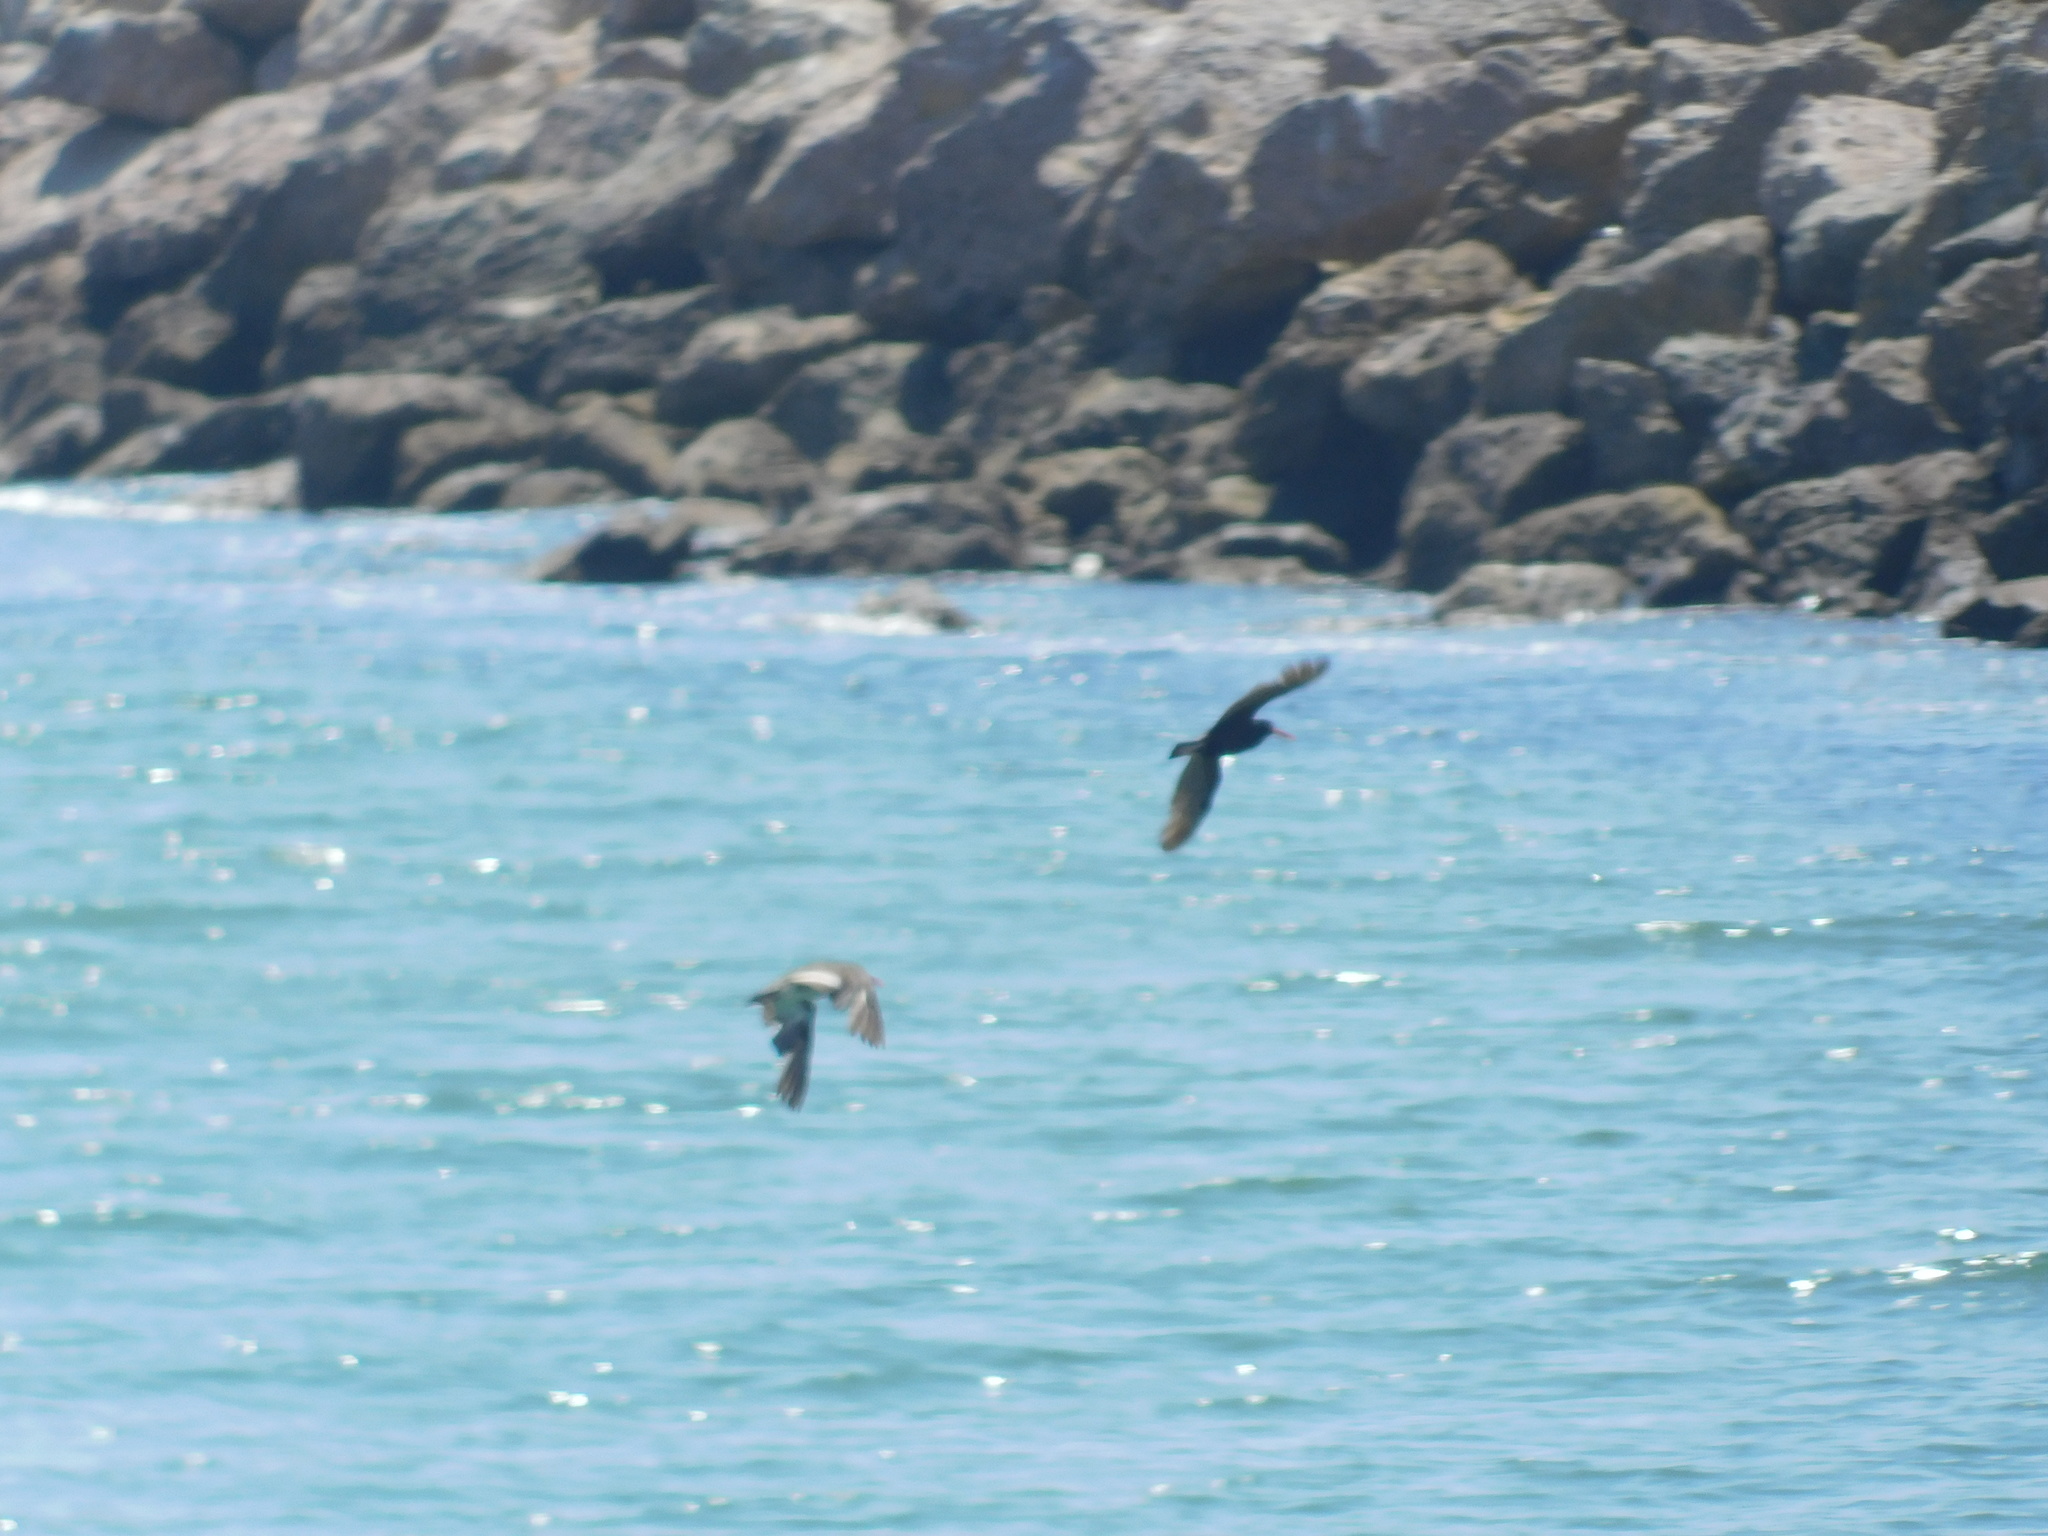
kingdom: Animalia
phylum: Chordata
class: Aves
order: Charadriiformes
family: Haematopodidae
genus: Haematopus
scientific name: Haematopus bachmani
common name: Black oystercatcher
